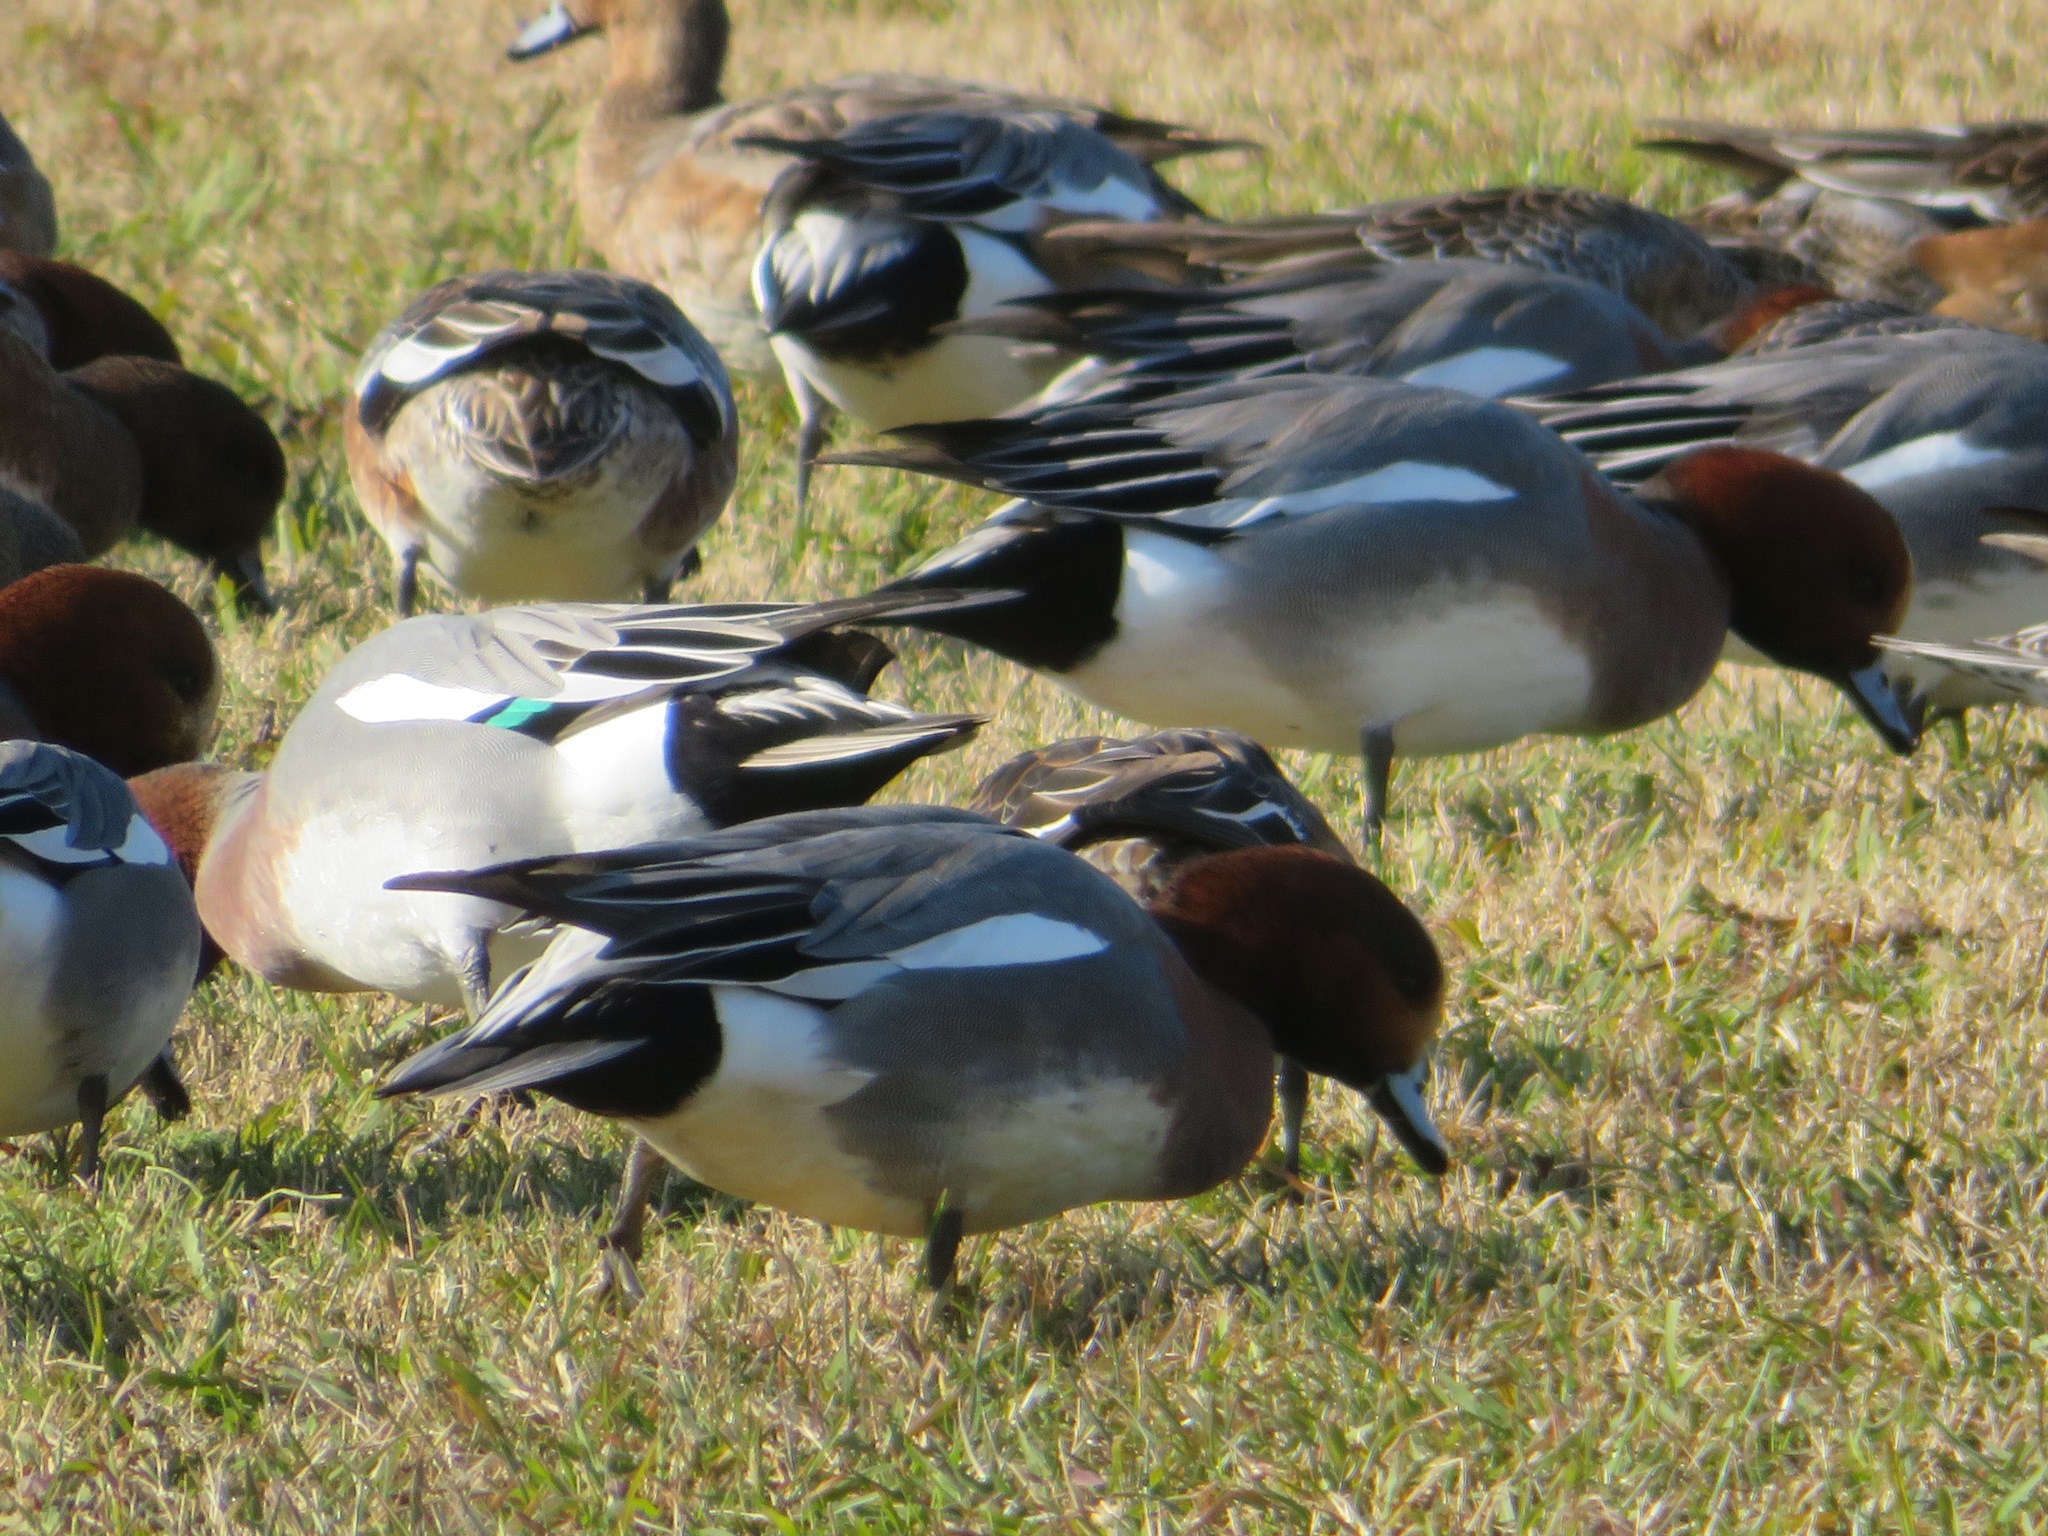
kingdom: Animalia
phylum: Chordata
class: Aves
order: Anseriformes
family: Anatidae
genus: Mareca
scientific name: Mareca penelope
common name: Eurasian wigeon
